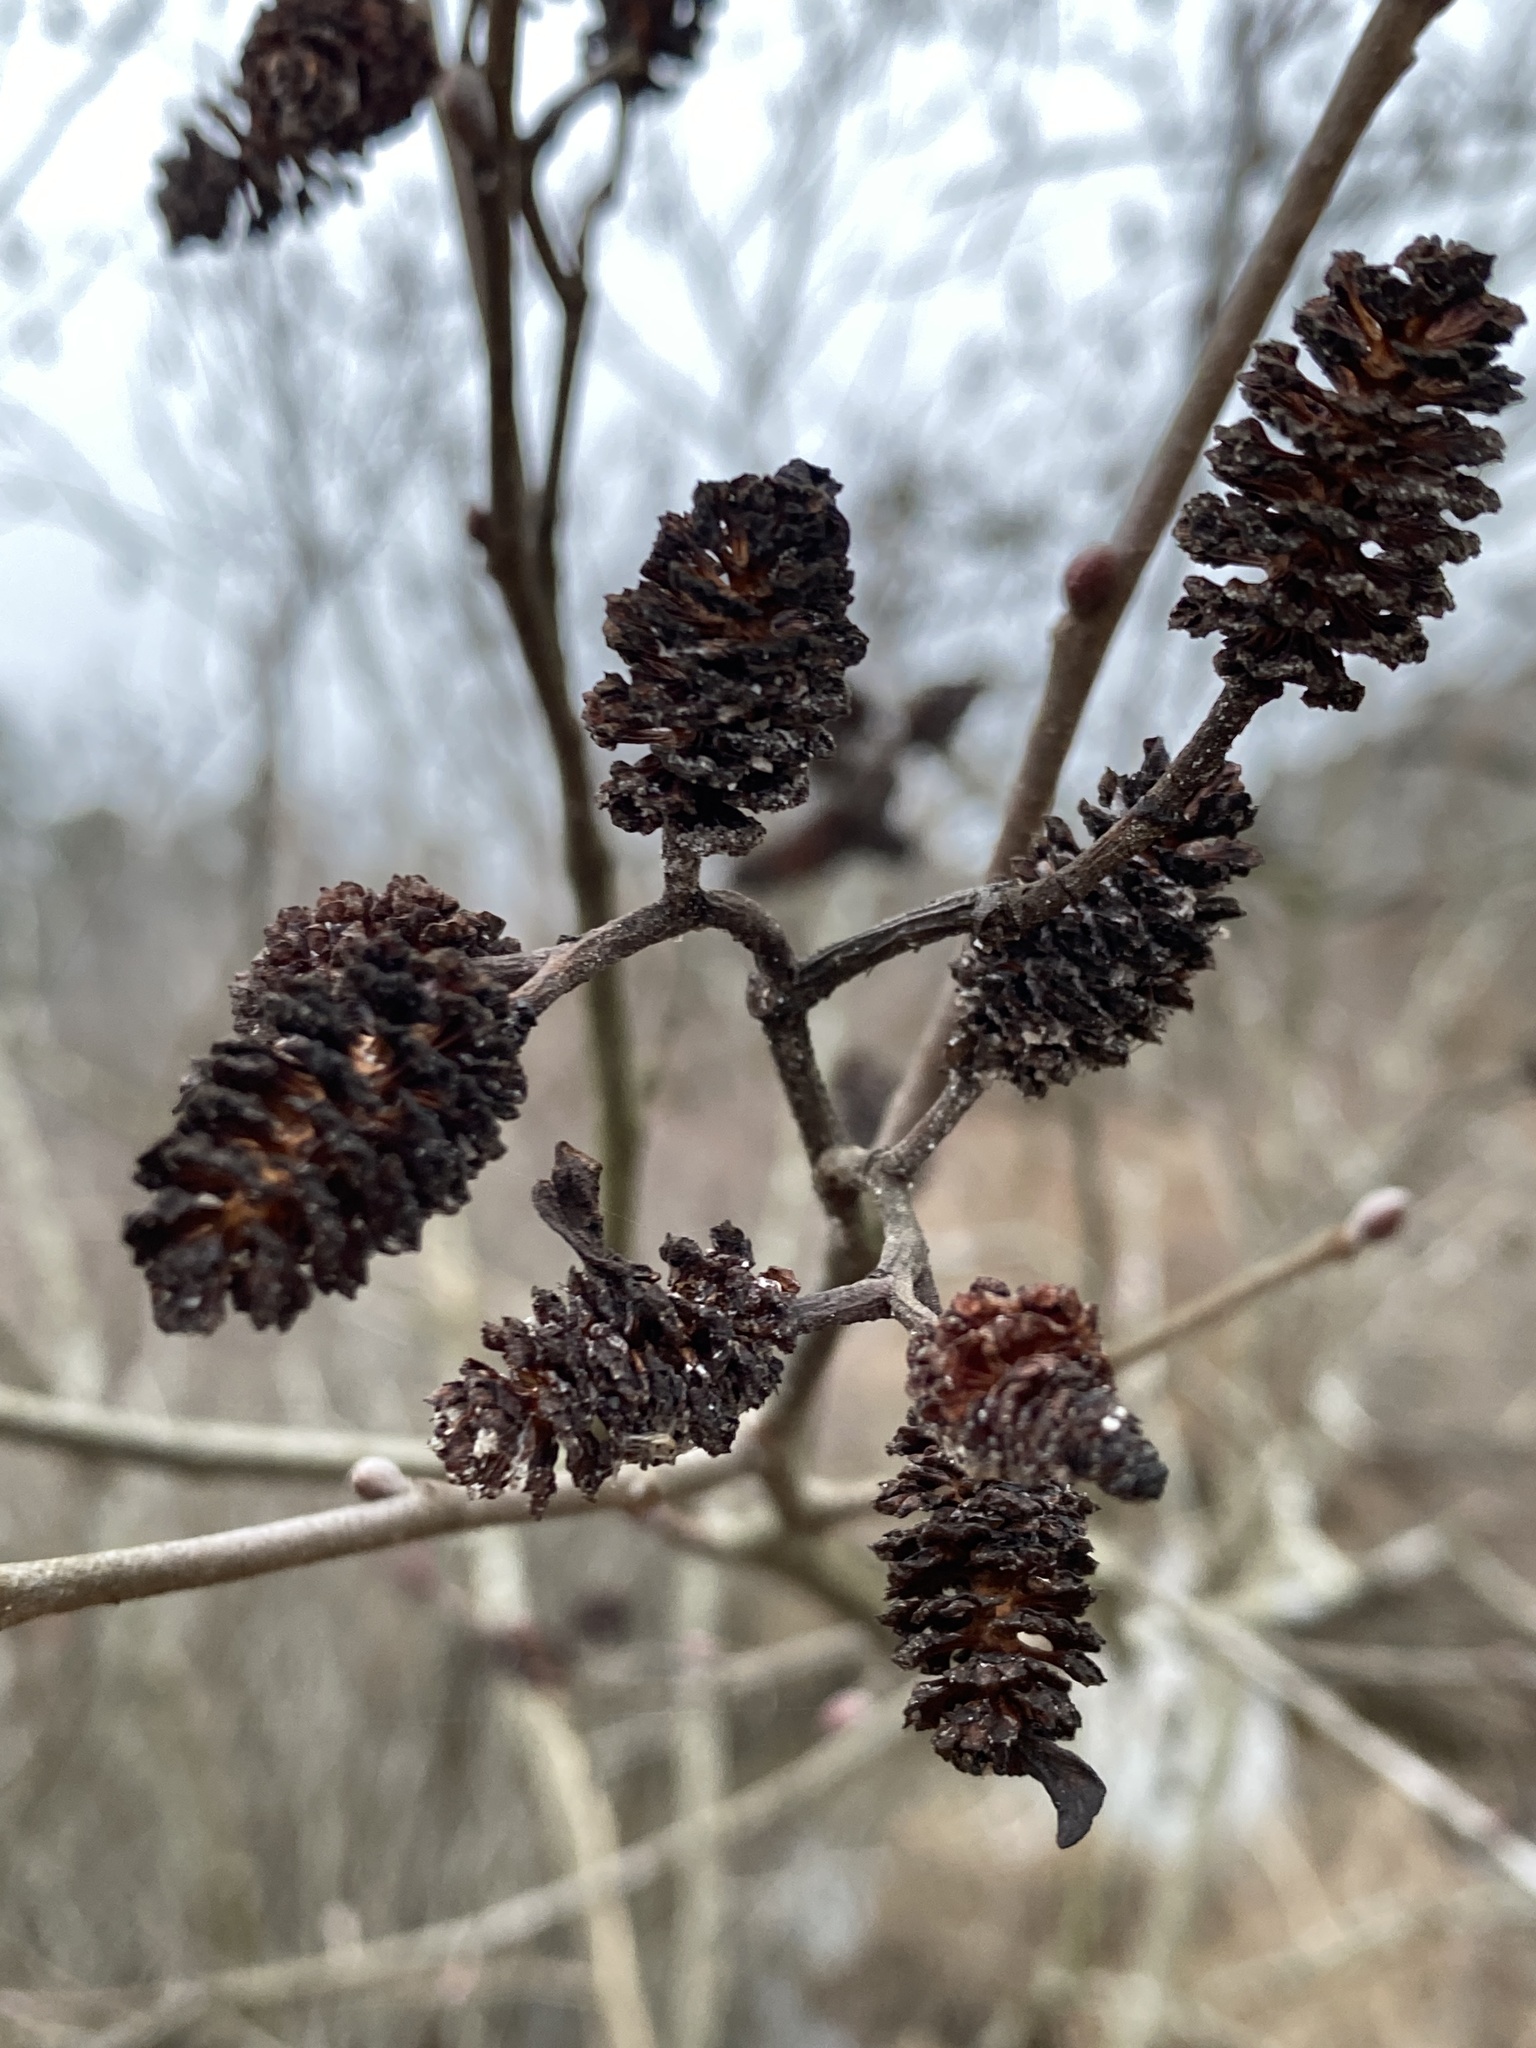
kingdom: Plantae
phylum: Tracheophyta
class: Magnoliopsida
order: Fagales
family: Betulaceae
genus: Alnus
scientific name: Alnus serrulata
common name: Hazel alder
